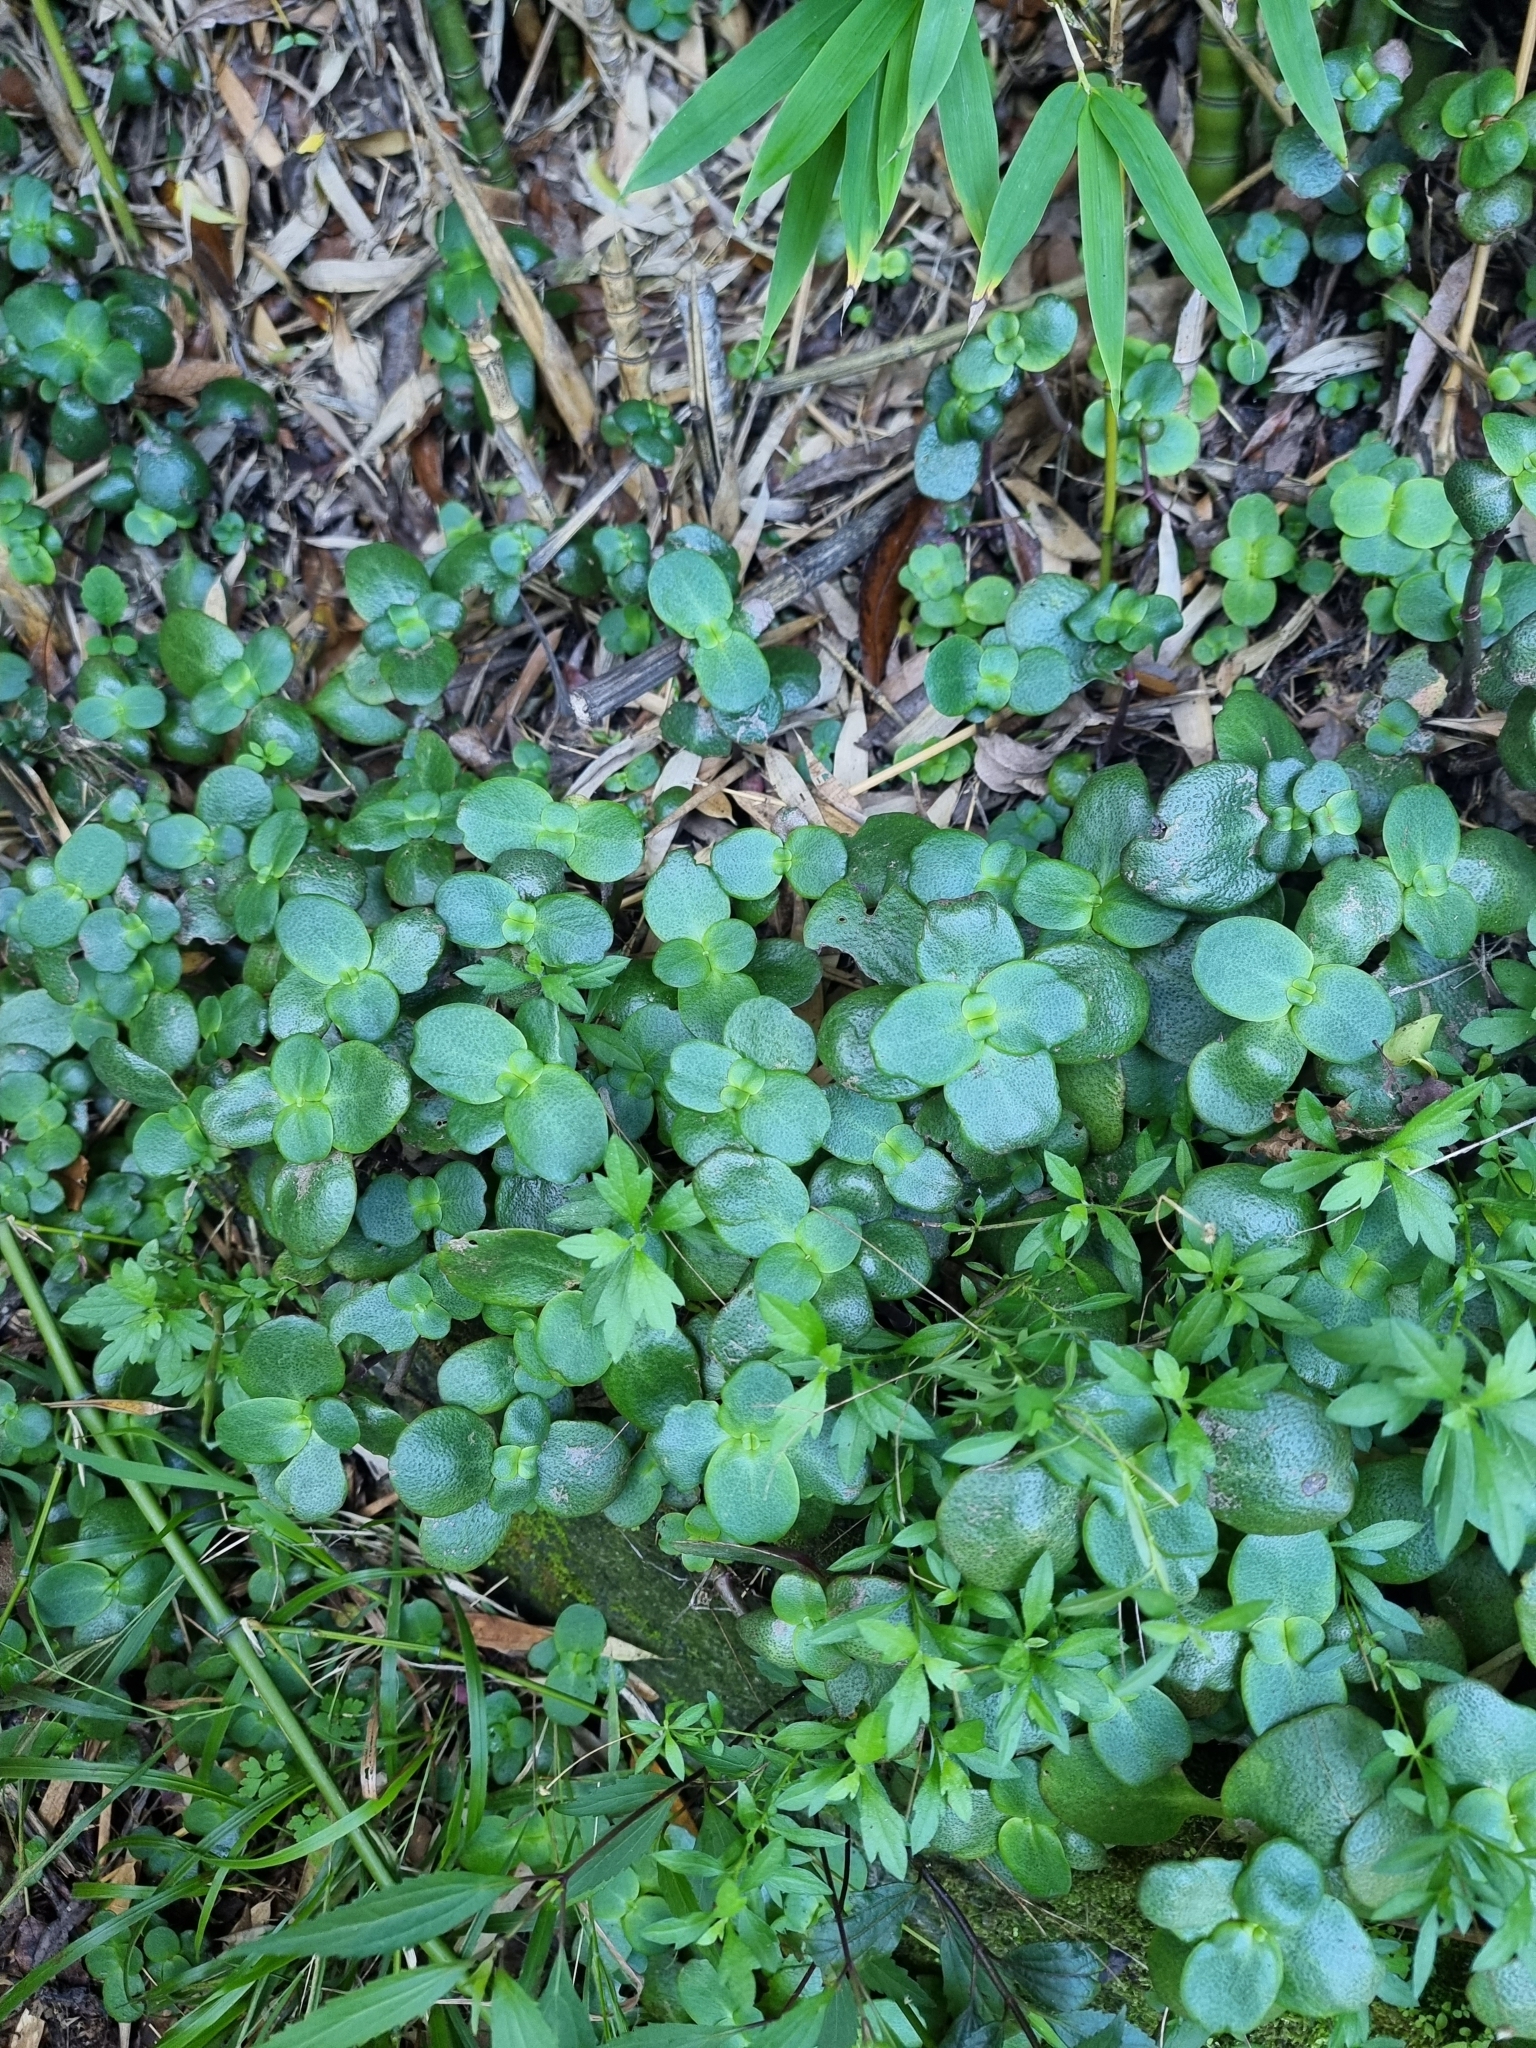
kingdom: Plantae
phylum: Tracheophyta
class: Magnoliopsida
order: Saxifragales
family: Crassulaceae
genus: Crassula
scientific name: Crassula multicava
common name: Cape province pygmyweed
